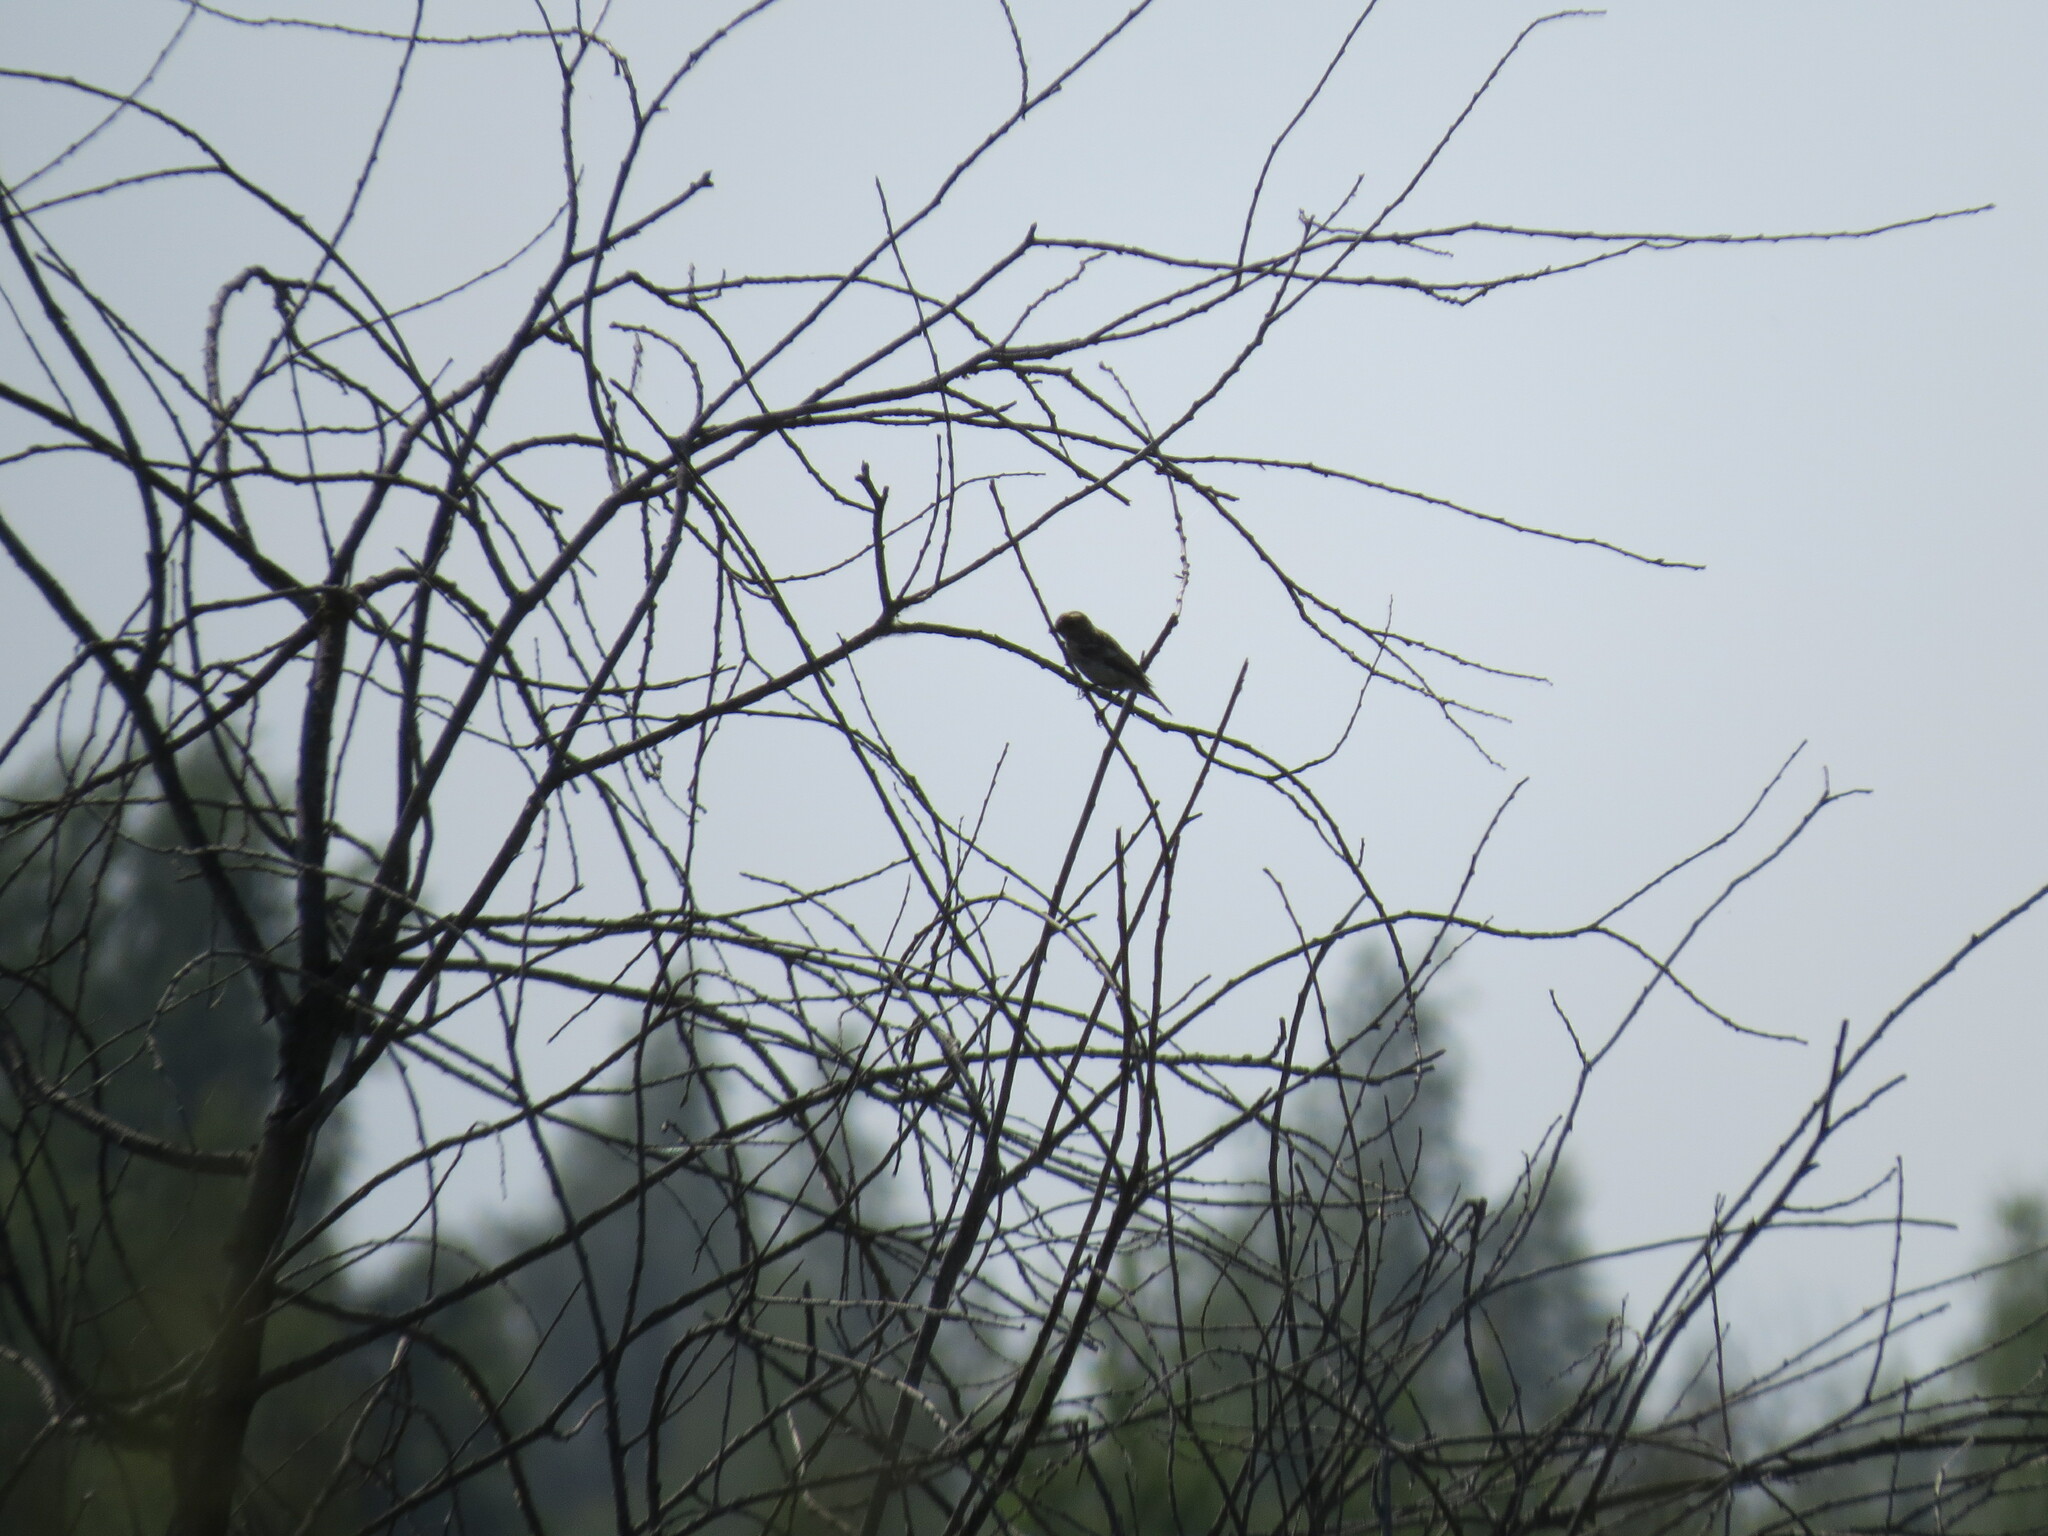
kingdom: Animalia
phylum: Chordata
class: Aves
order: Passeriformes
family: Fringillidae
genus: Spinus
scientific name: Spinus spinus
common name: Eurasian siskin
